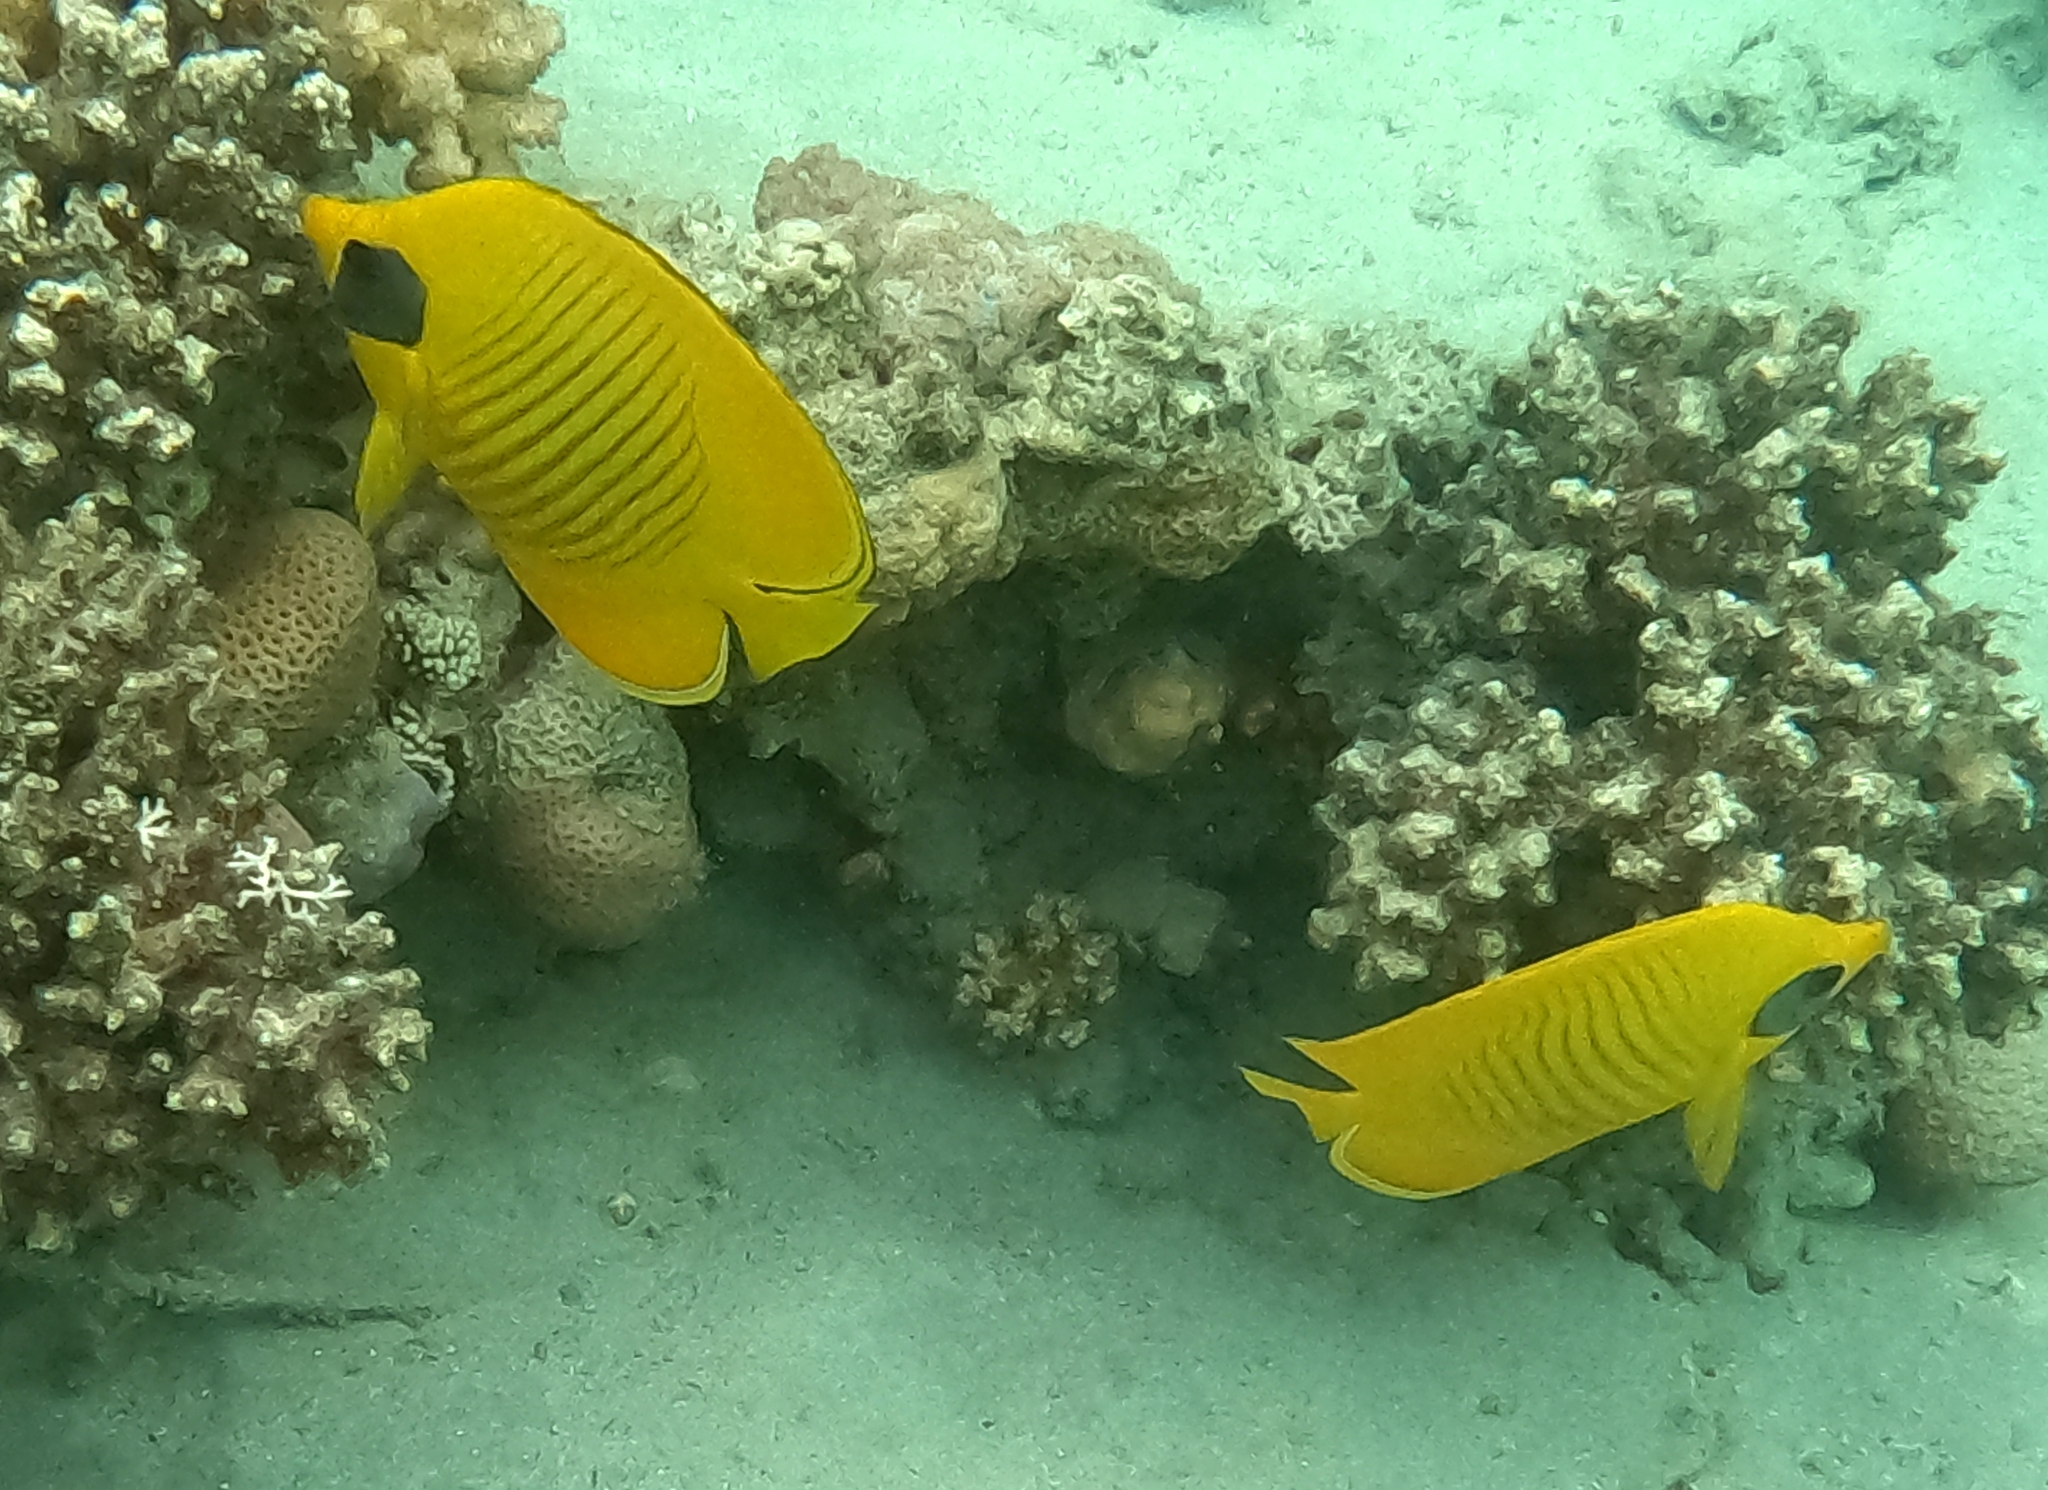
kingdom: Animalia
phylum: Chordata
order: Perciformes
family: Chaetodontidae
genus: Chaetodon
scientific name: Chaetodon semilarvatus
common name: Golden butterflyfish
